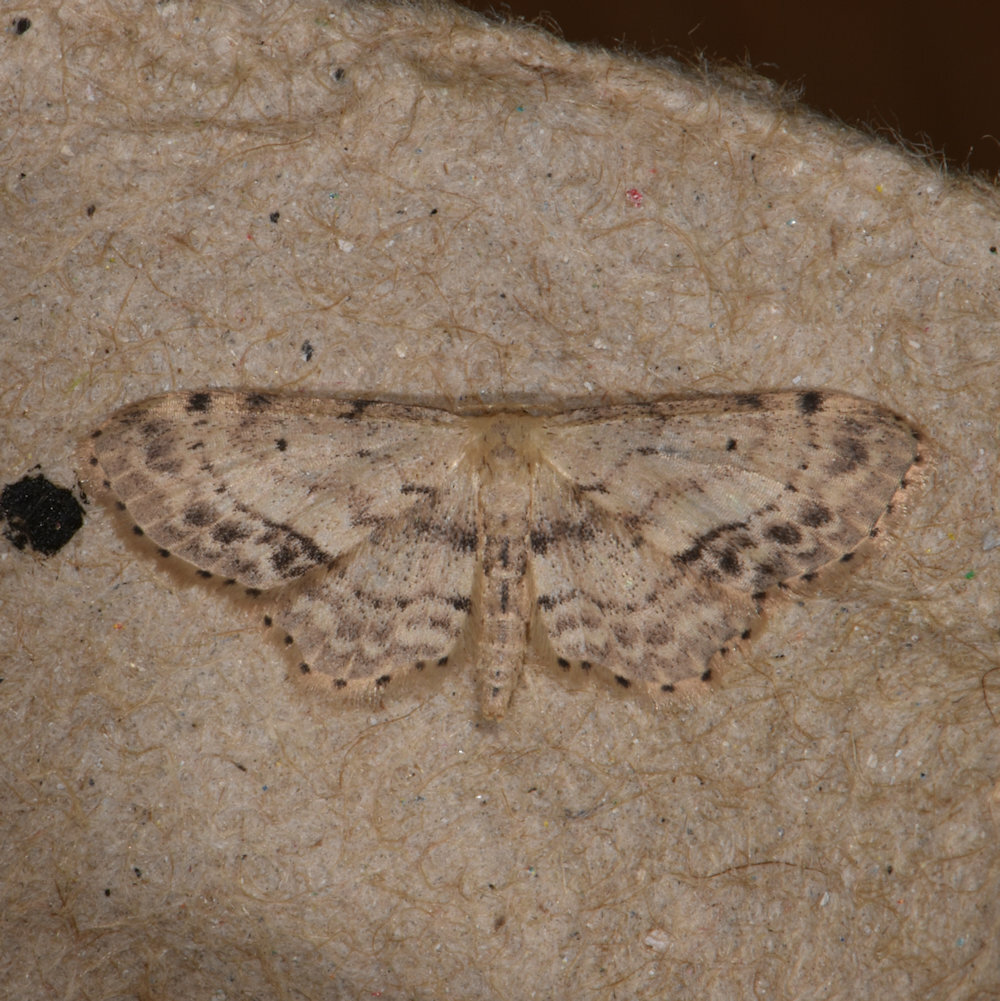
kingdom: Animalia
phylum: Arthropoda
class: Insecta
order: Lepidoptera
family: Geometridae
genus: Idaea
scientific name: Idaea dimidiata
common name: Single-dotted wave
